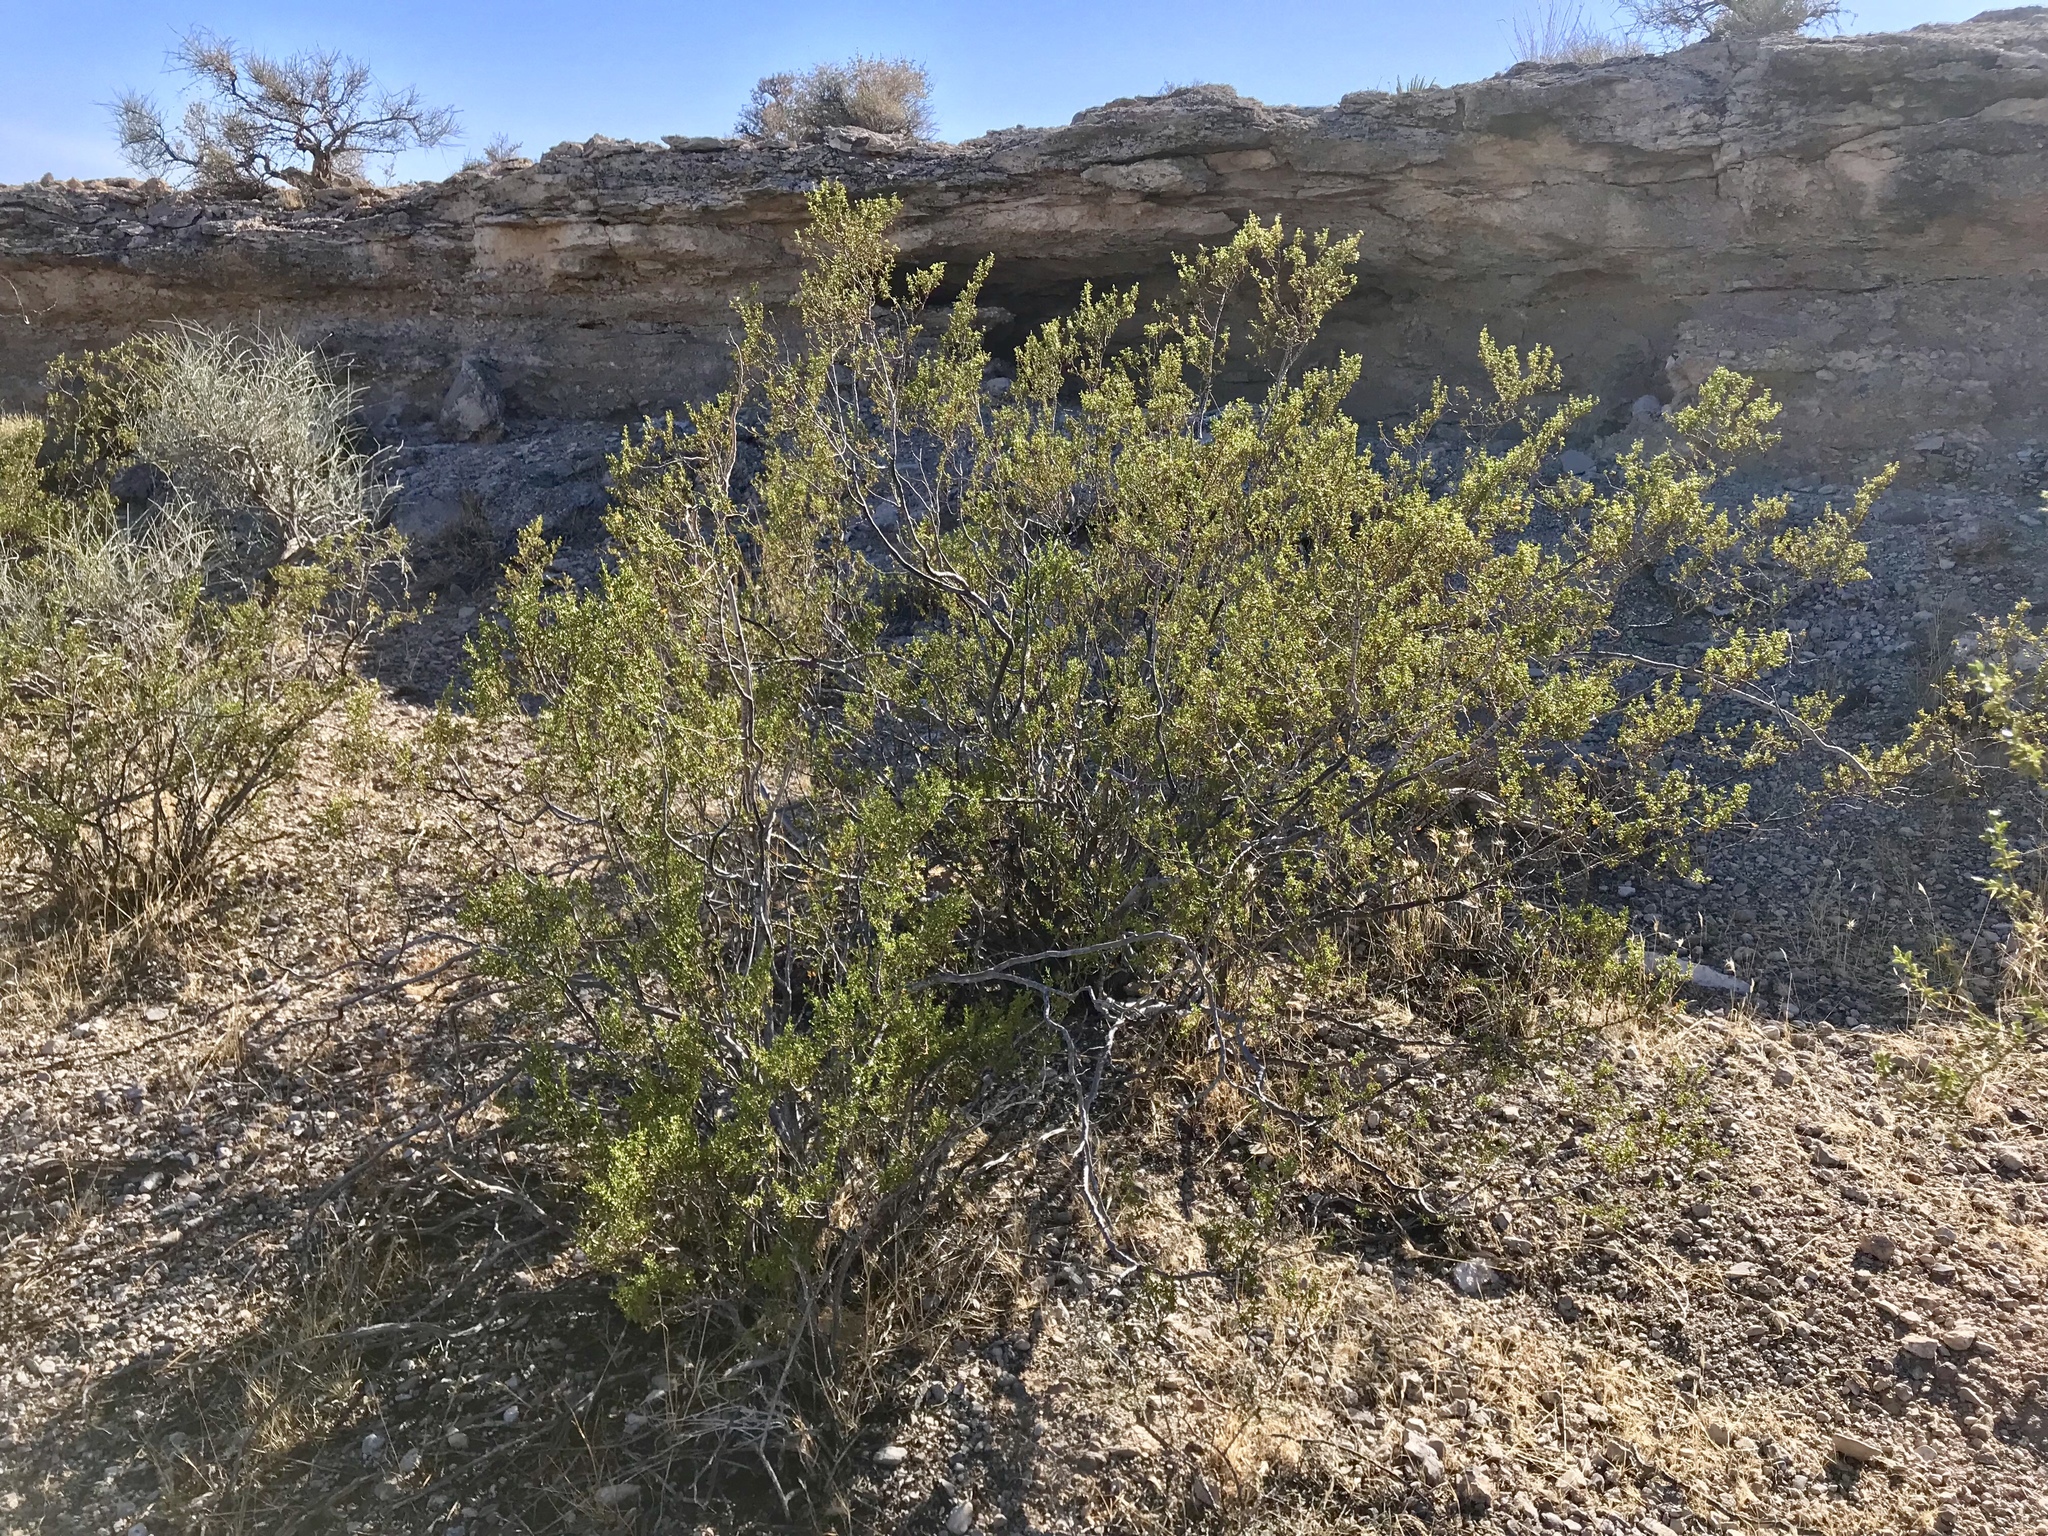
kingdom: Plantae
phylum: Tracheophyta
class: Magnoliopsida
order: Zygophyllales
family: Zygophyllaceae
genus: Larrea
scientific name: Larrea tridentata
